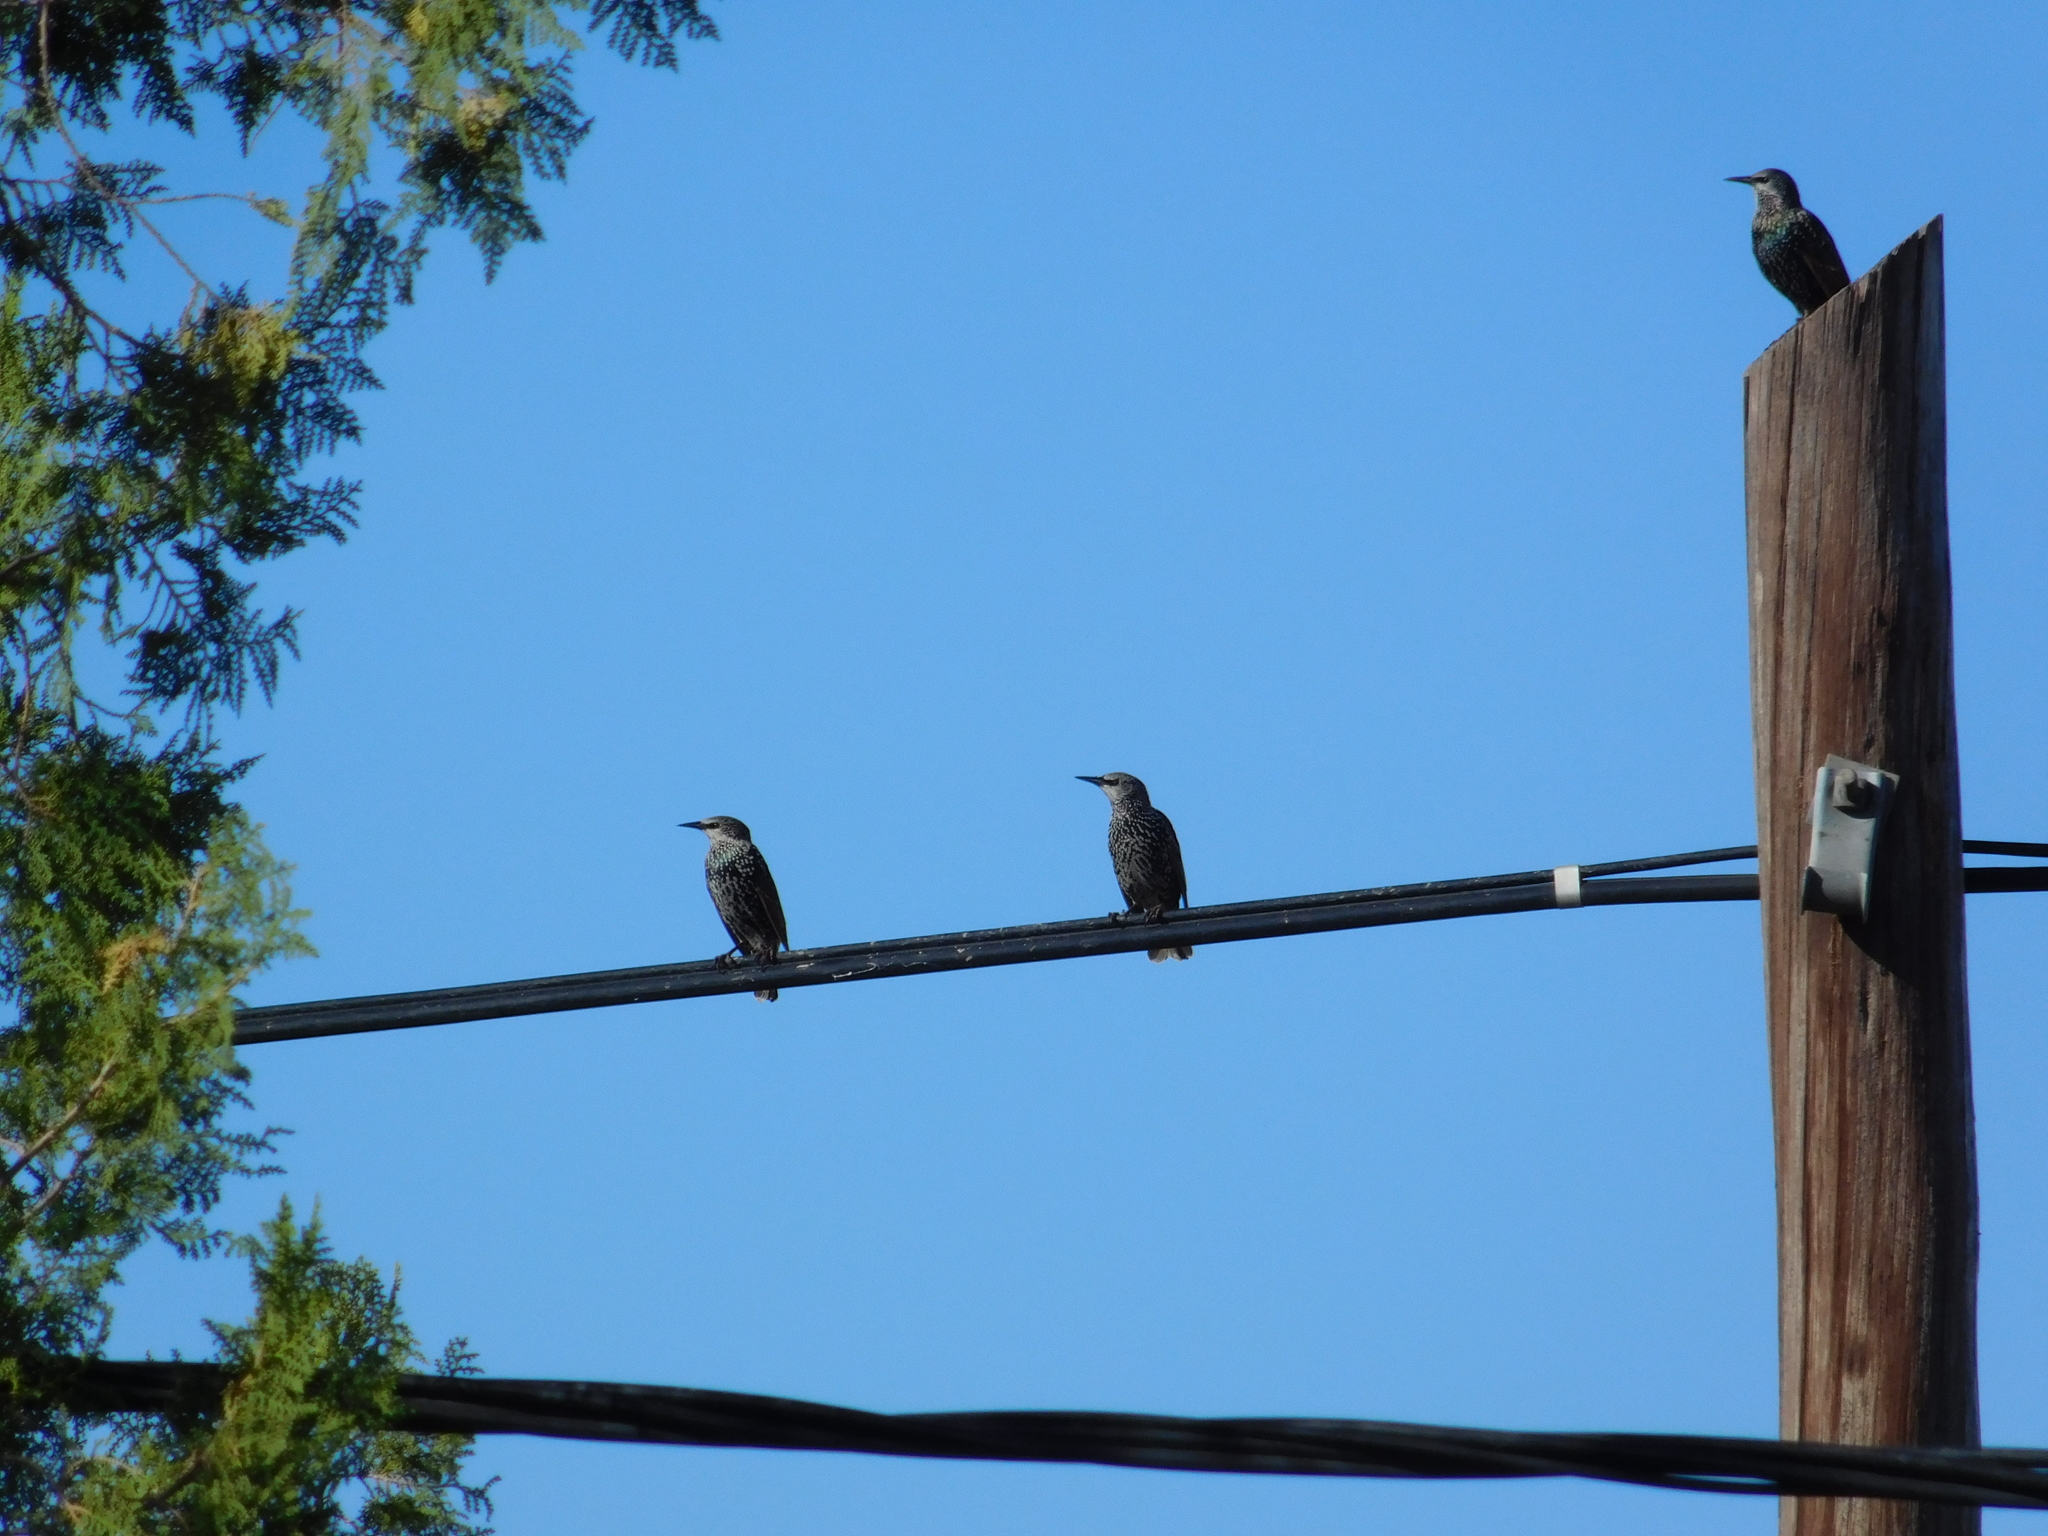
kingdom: Animalia
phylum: Chordata
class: Aves
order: Passeriformes
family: Sturnidae
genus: Sturnus
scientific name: Sturnus vulgaris
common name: Common starling
